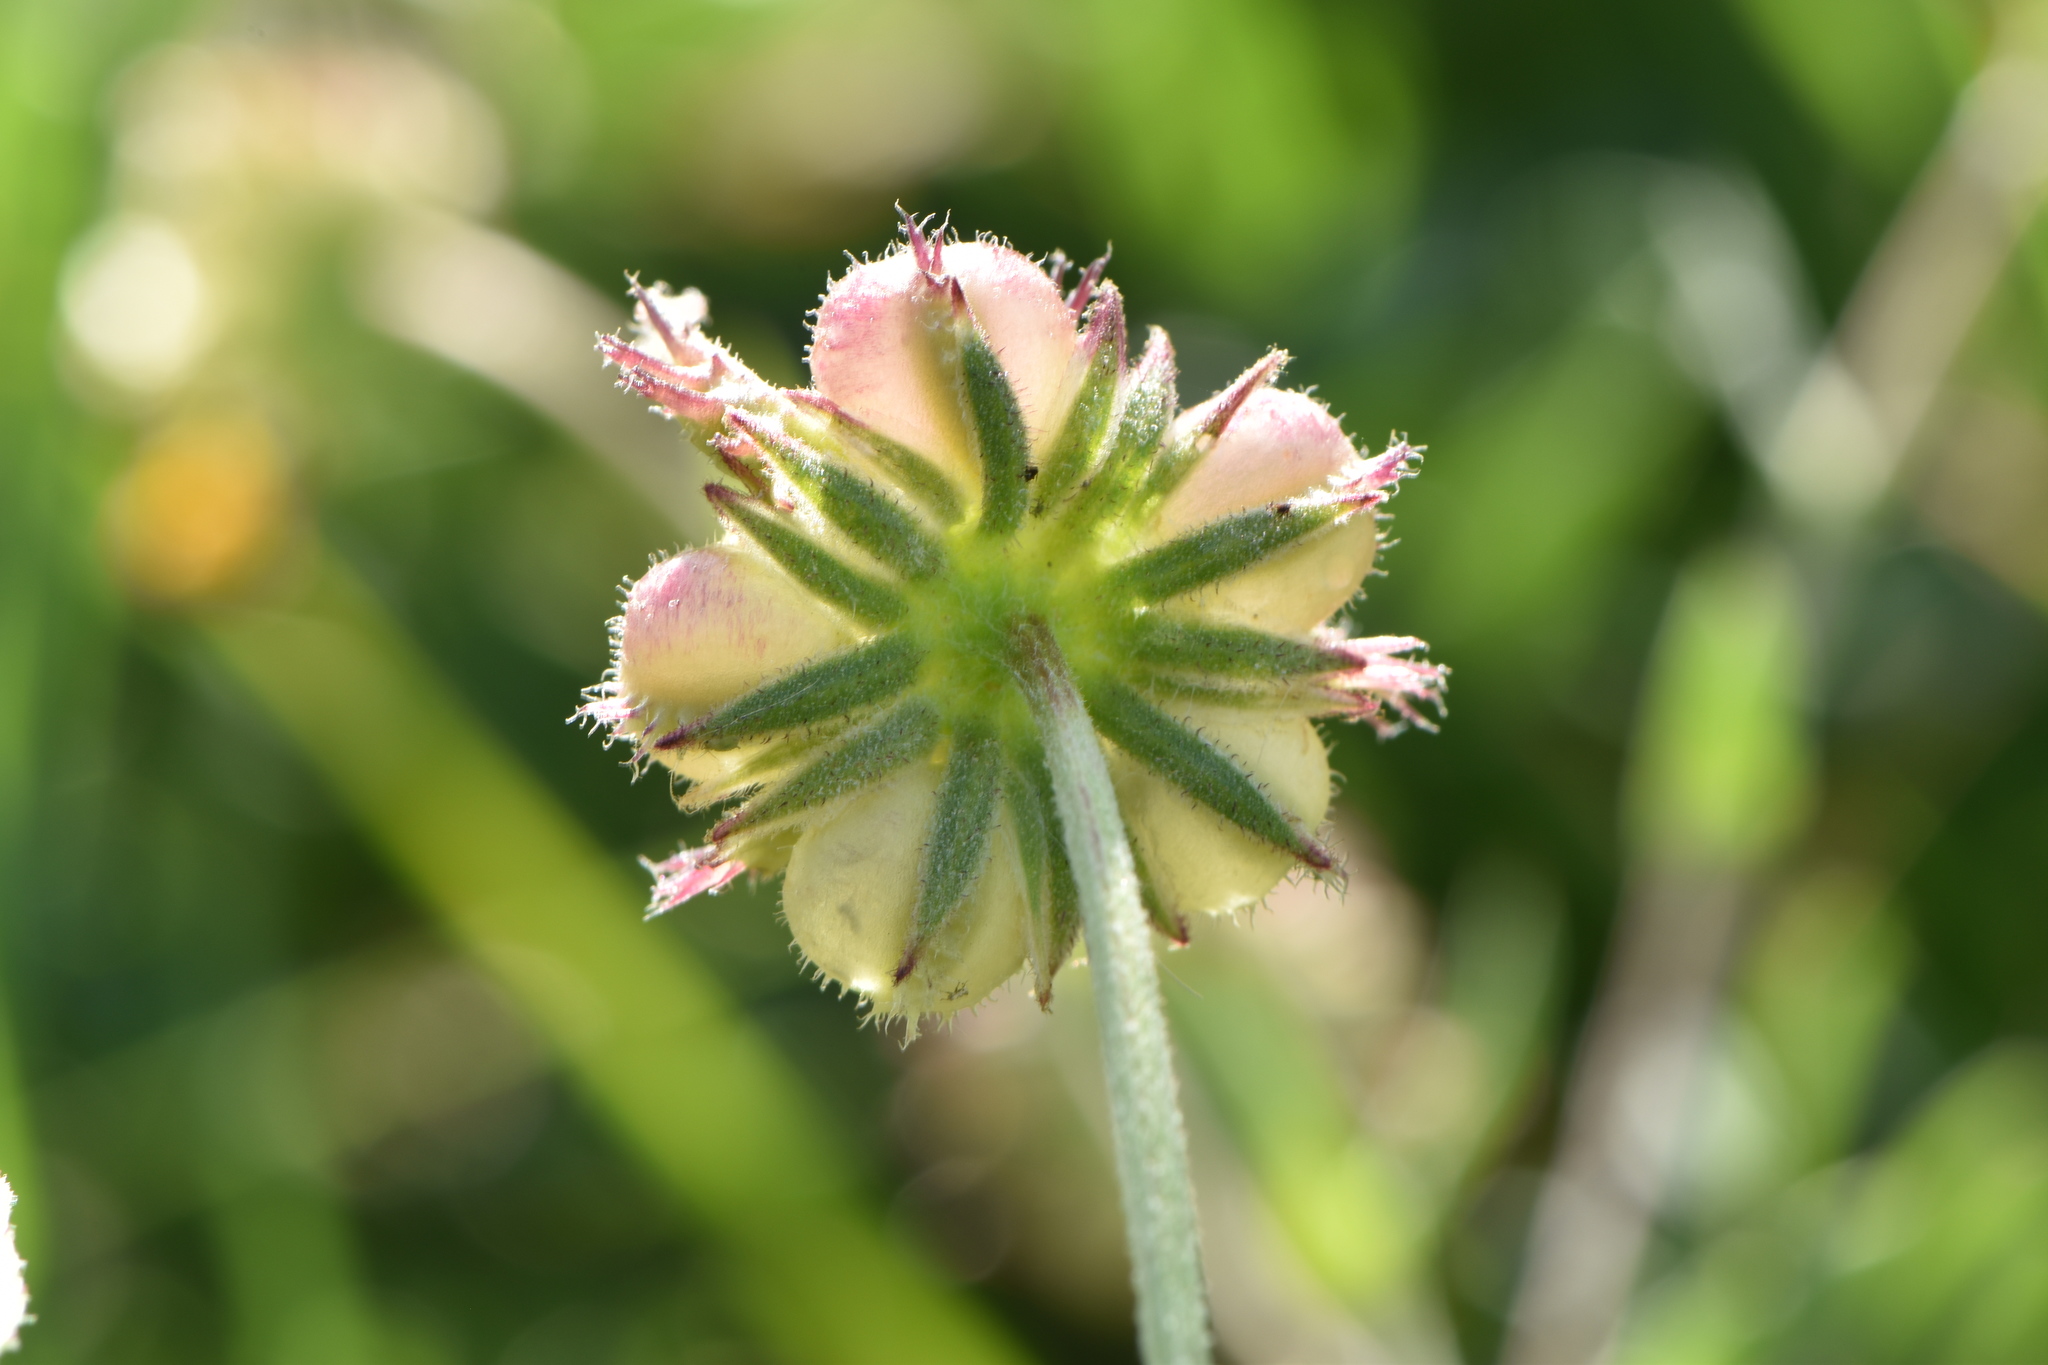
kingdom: Plantae
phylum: Tracheophyta
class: Magnoliopsida
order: Asterales
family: Asteraceae
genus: Calendula
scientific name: Calendula arvensis
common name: Field marigold
